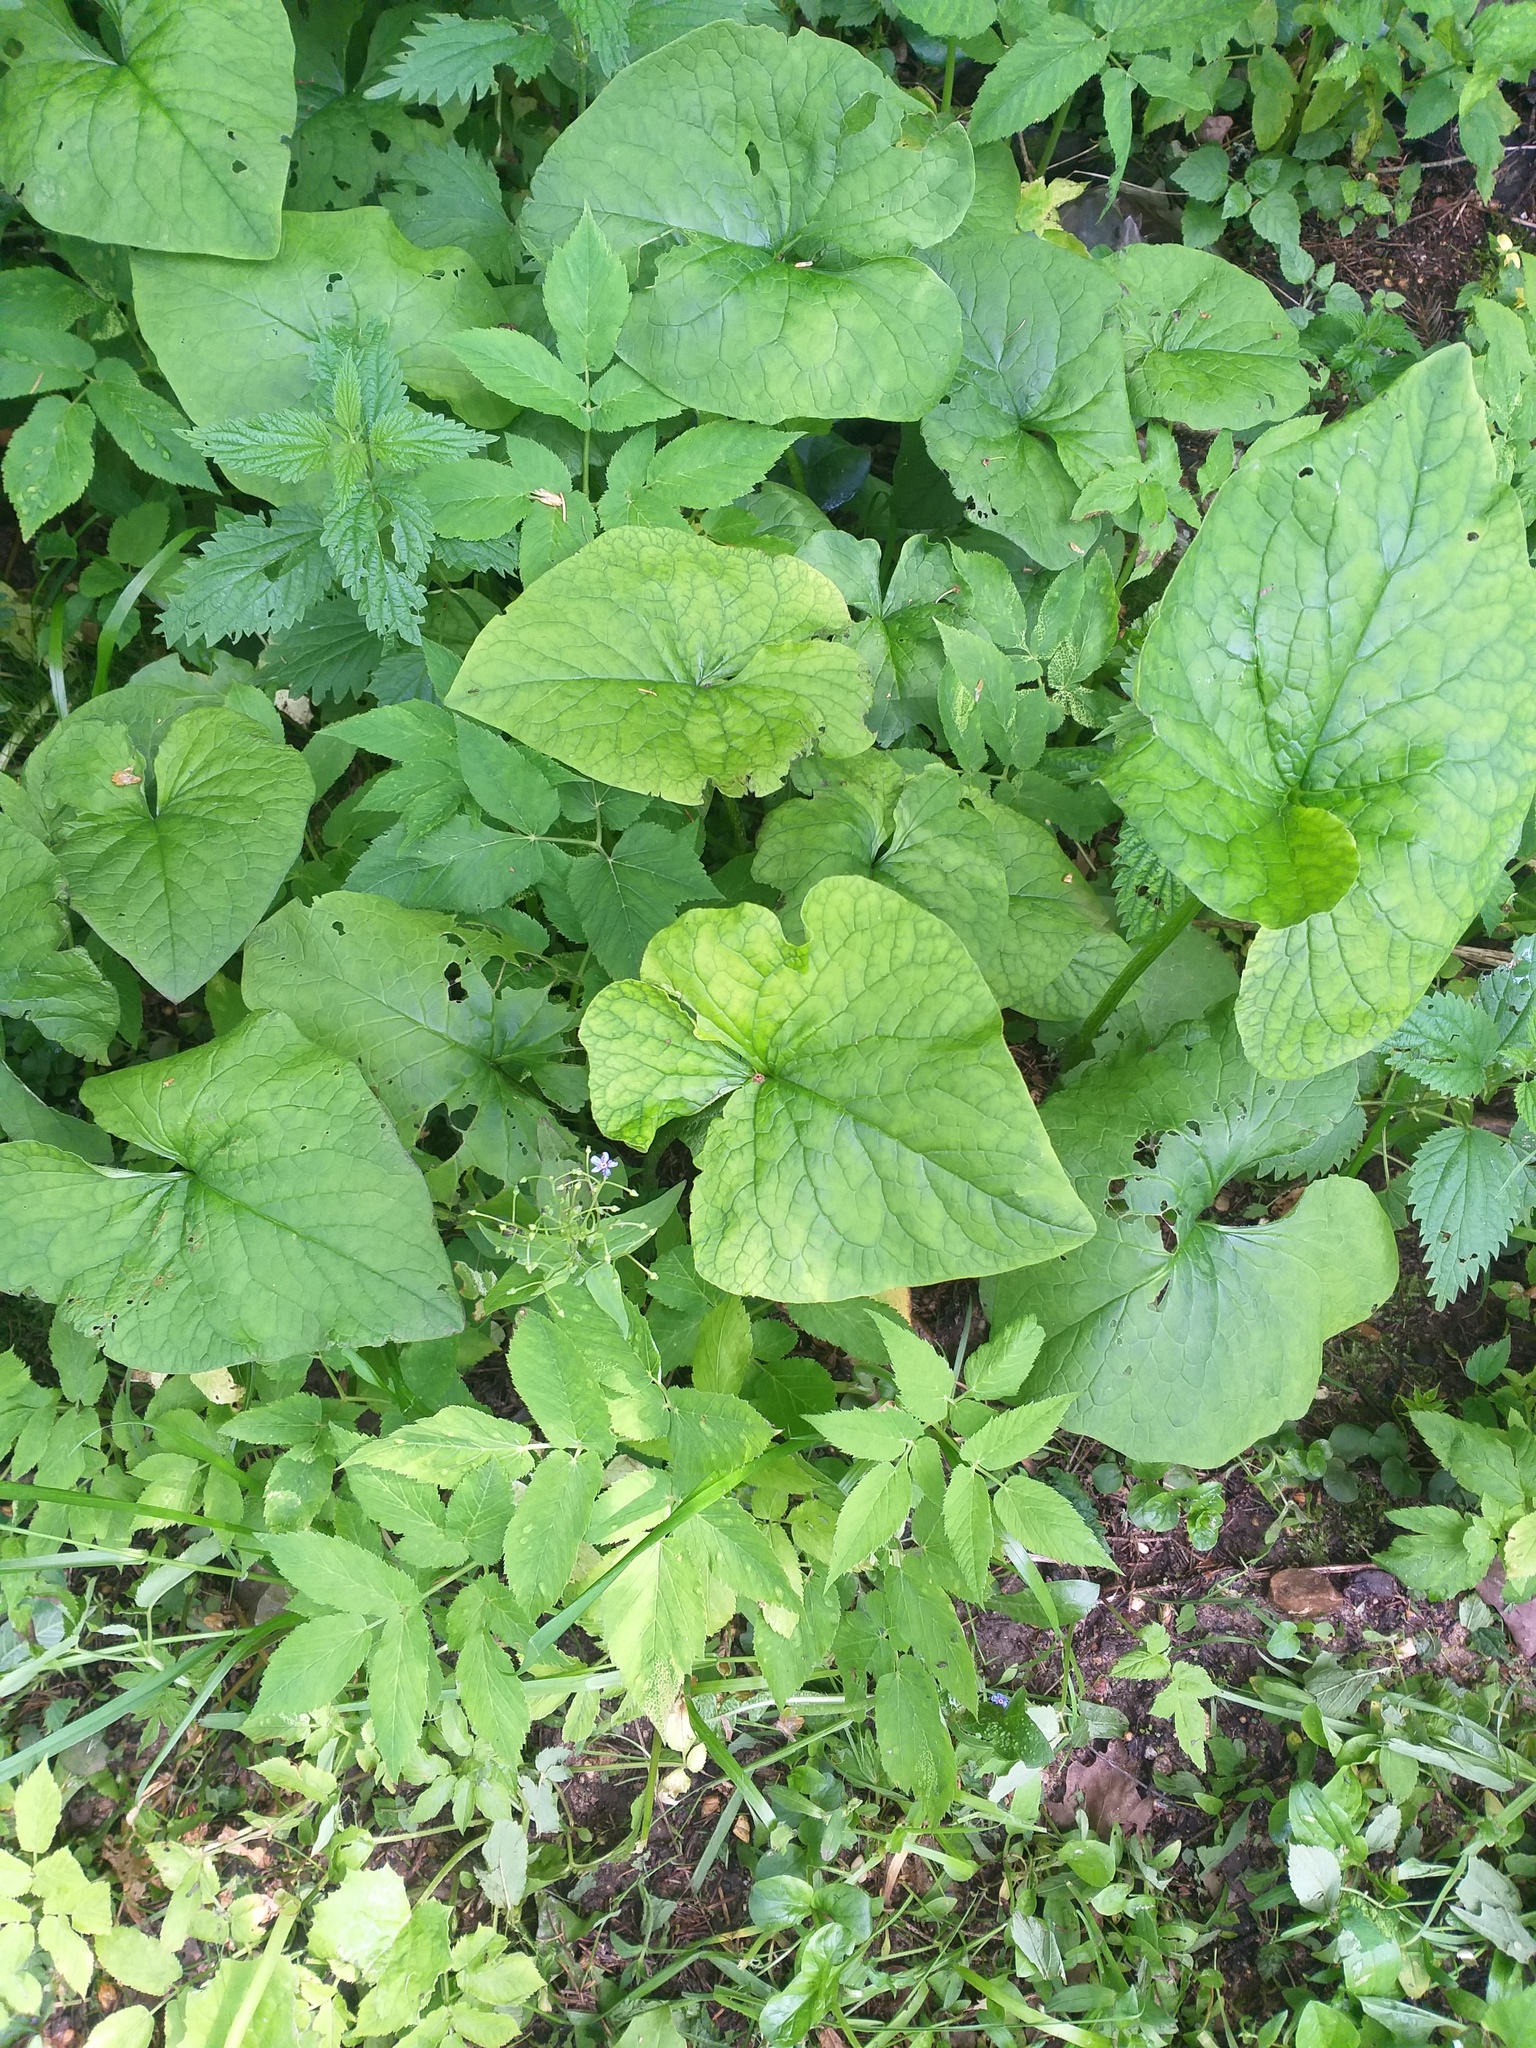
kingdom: Plantae
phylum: Tracheophyta
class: Magnoliopsida
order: Boraginales
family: Boraginaceae
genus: Brunnera
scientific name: Brunnera sibirica
